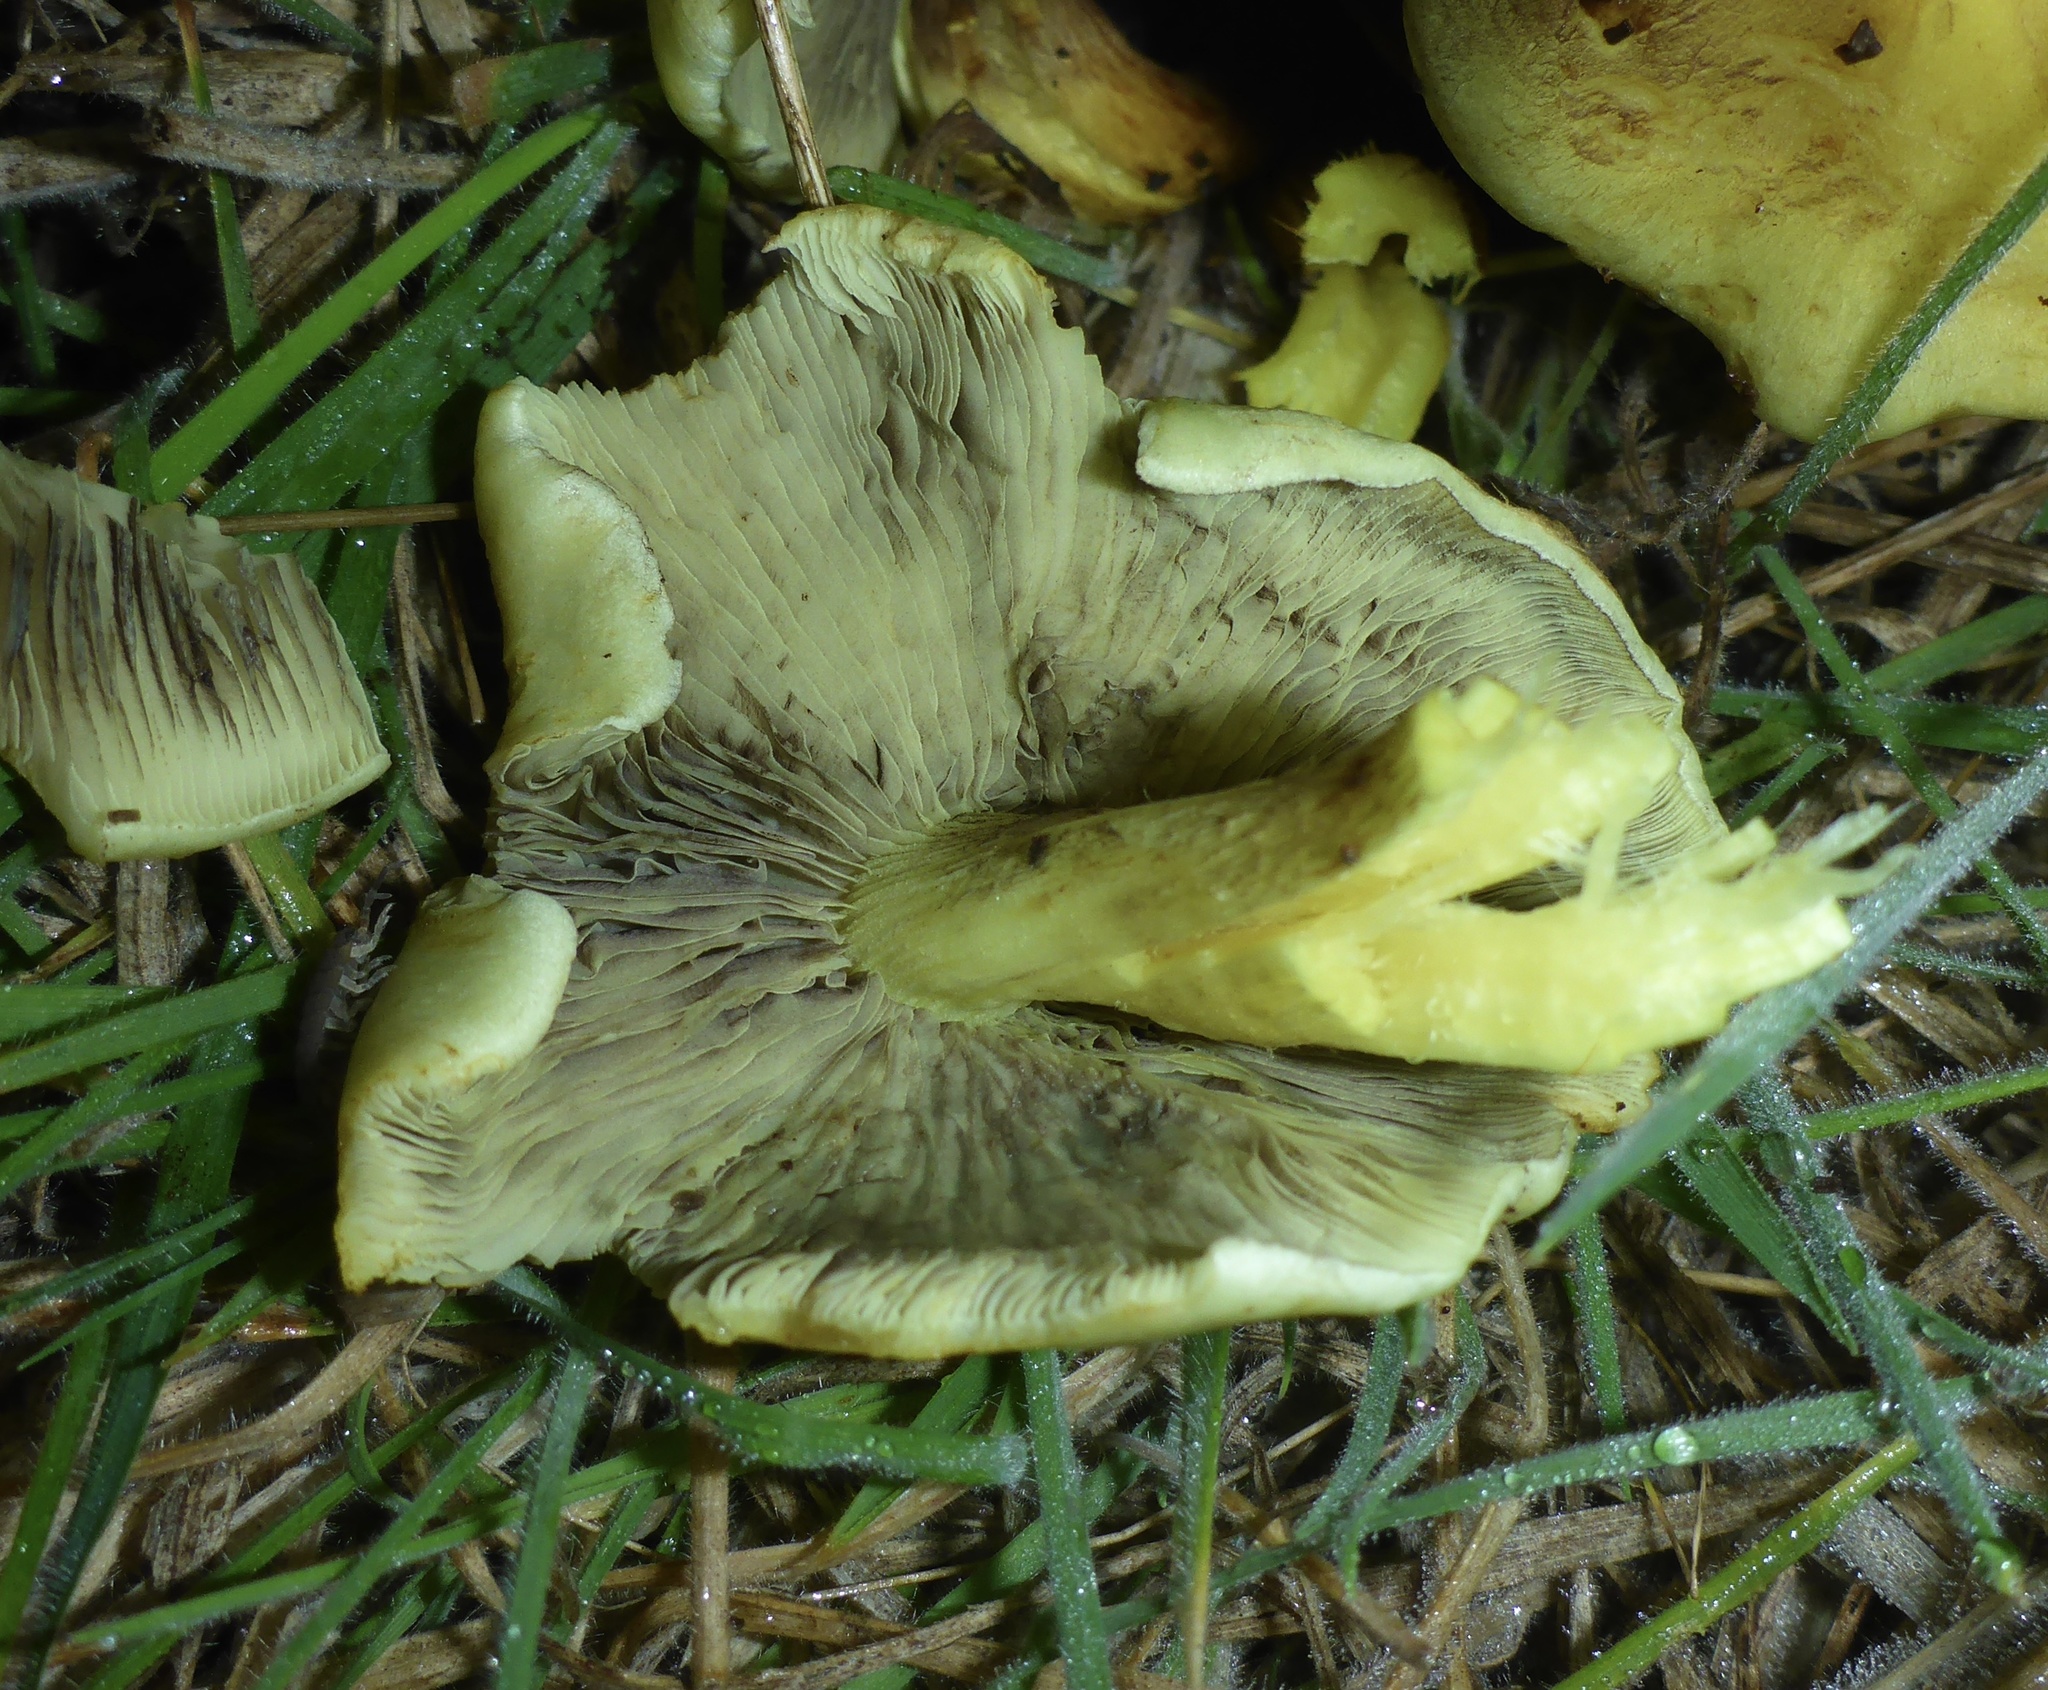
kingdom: Fungi
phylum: Basidiomycota
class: Agaricomycetes
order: Agaricales
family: Strophariaceae
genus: Hypholoma
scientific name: Hypholoma fasciculare
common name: Sulphur tuft
